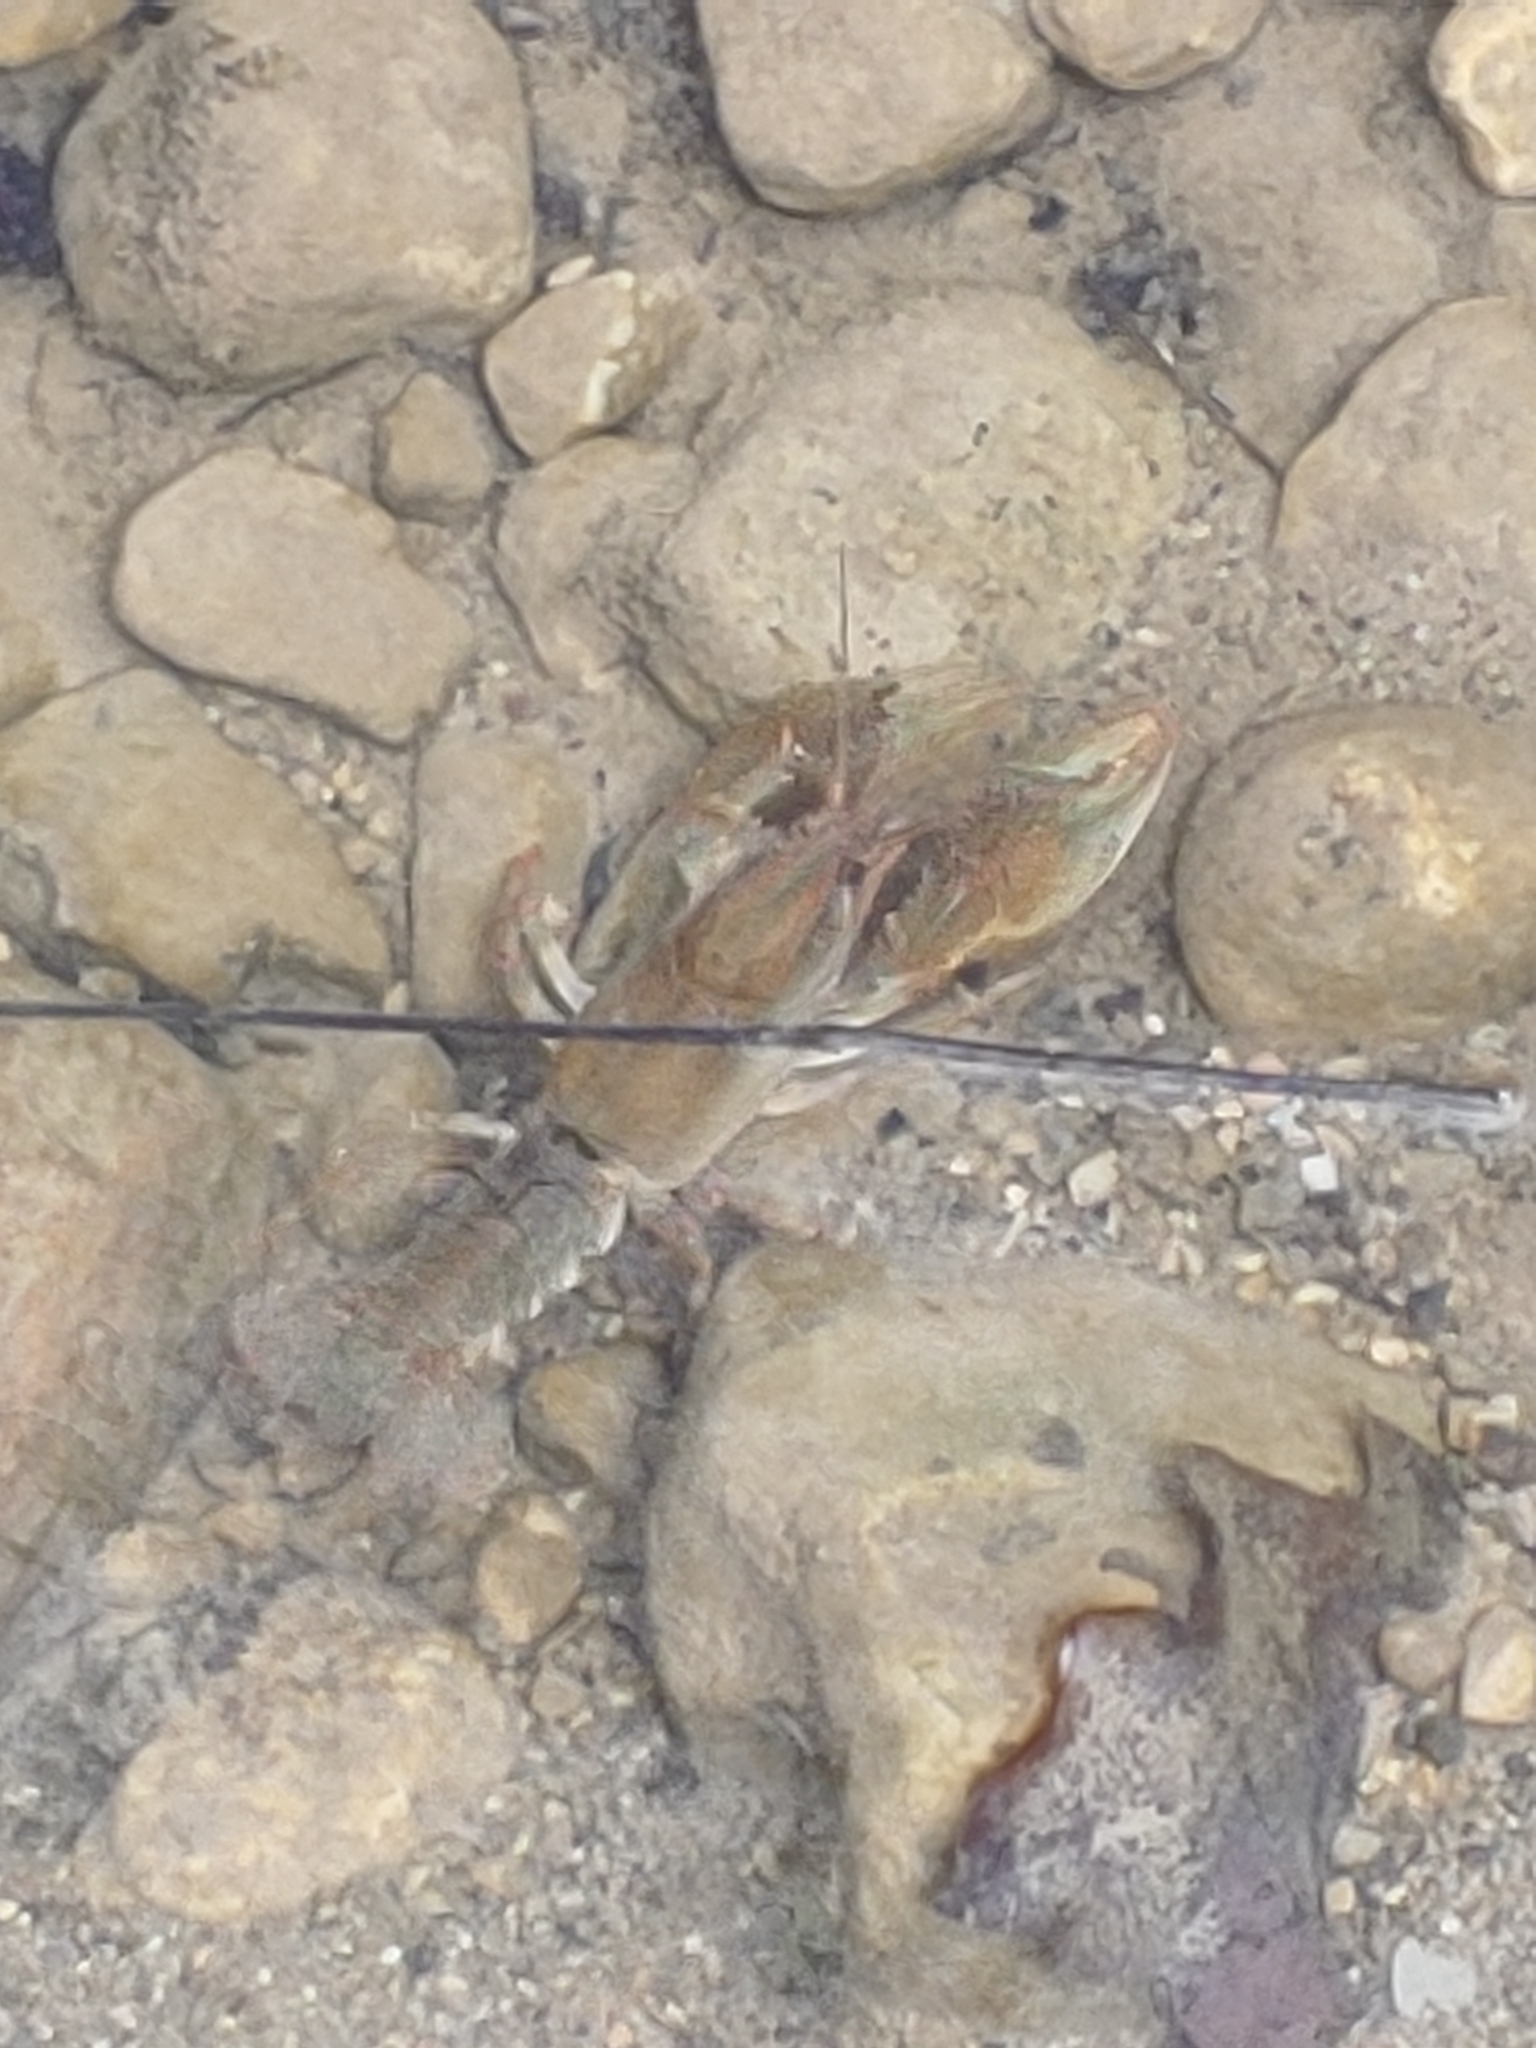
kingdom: Animalia
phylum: Arthropoda
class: Malacostraca
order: Decapoda
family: Cambaridae
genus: Lacunicambarus
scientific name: Lacunicambarus polychromatus
